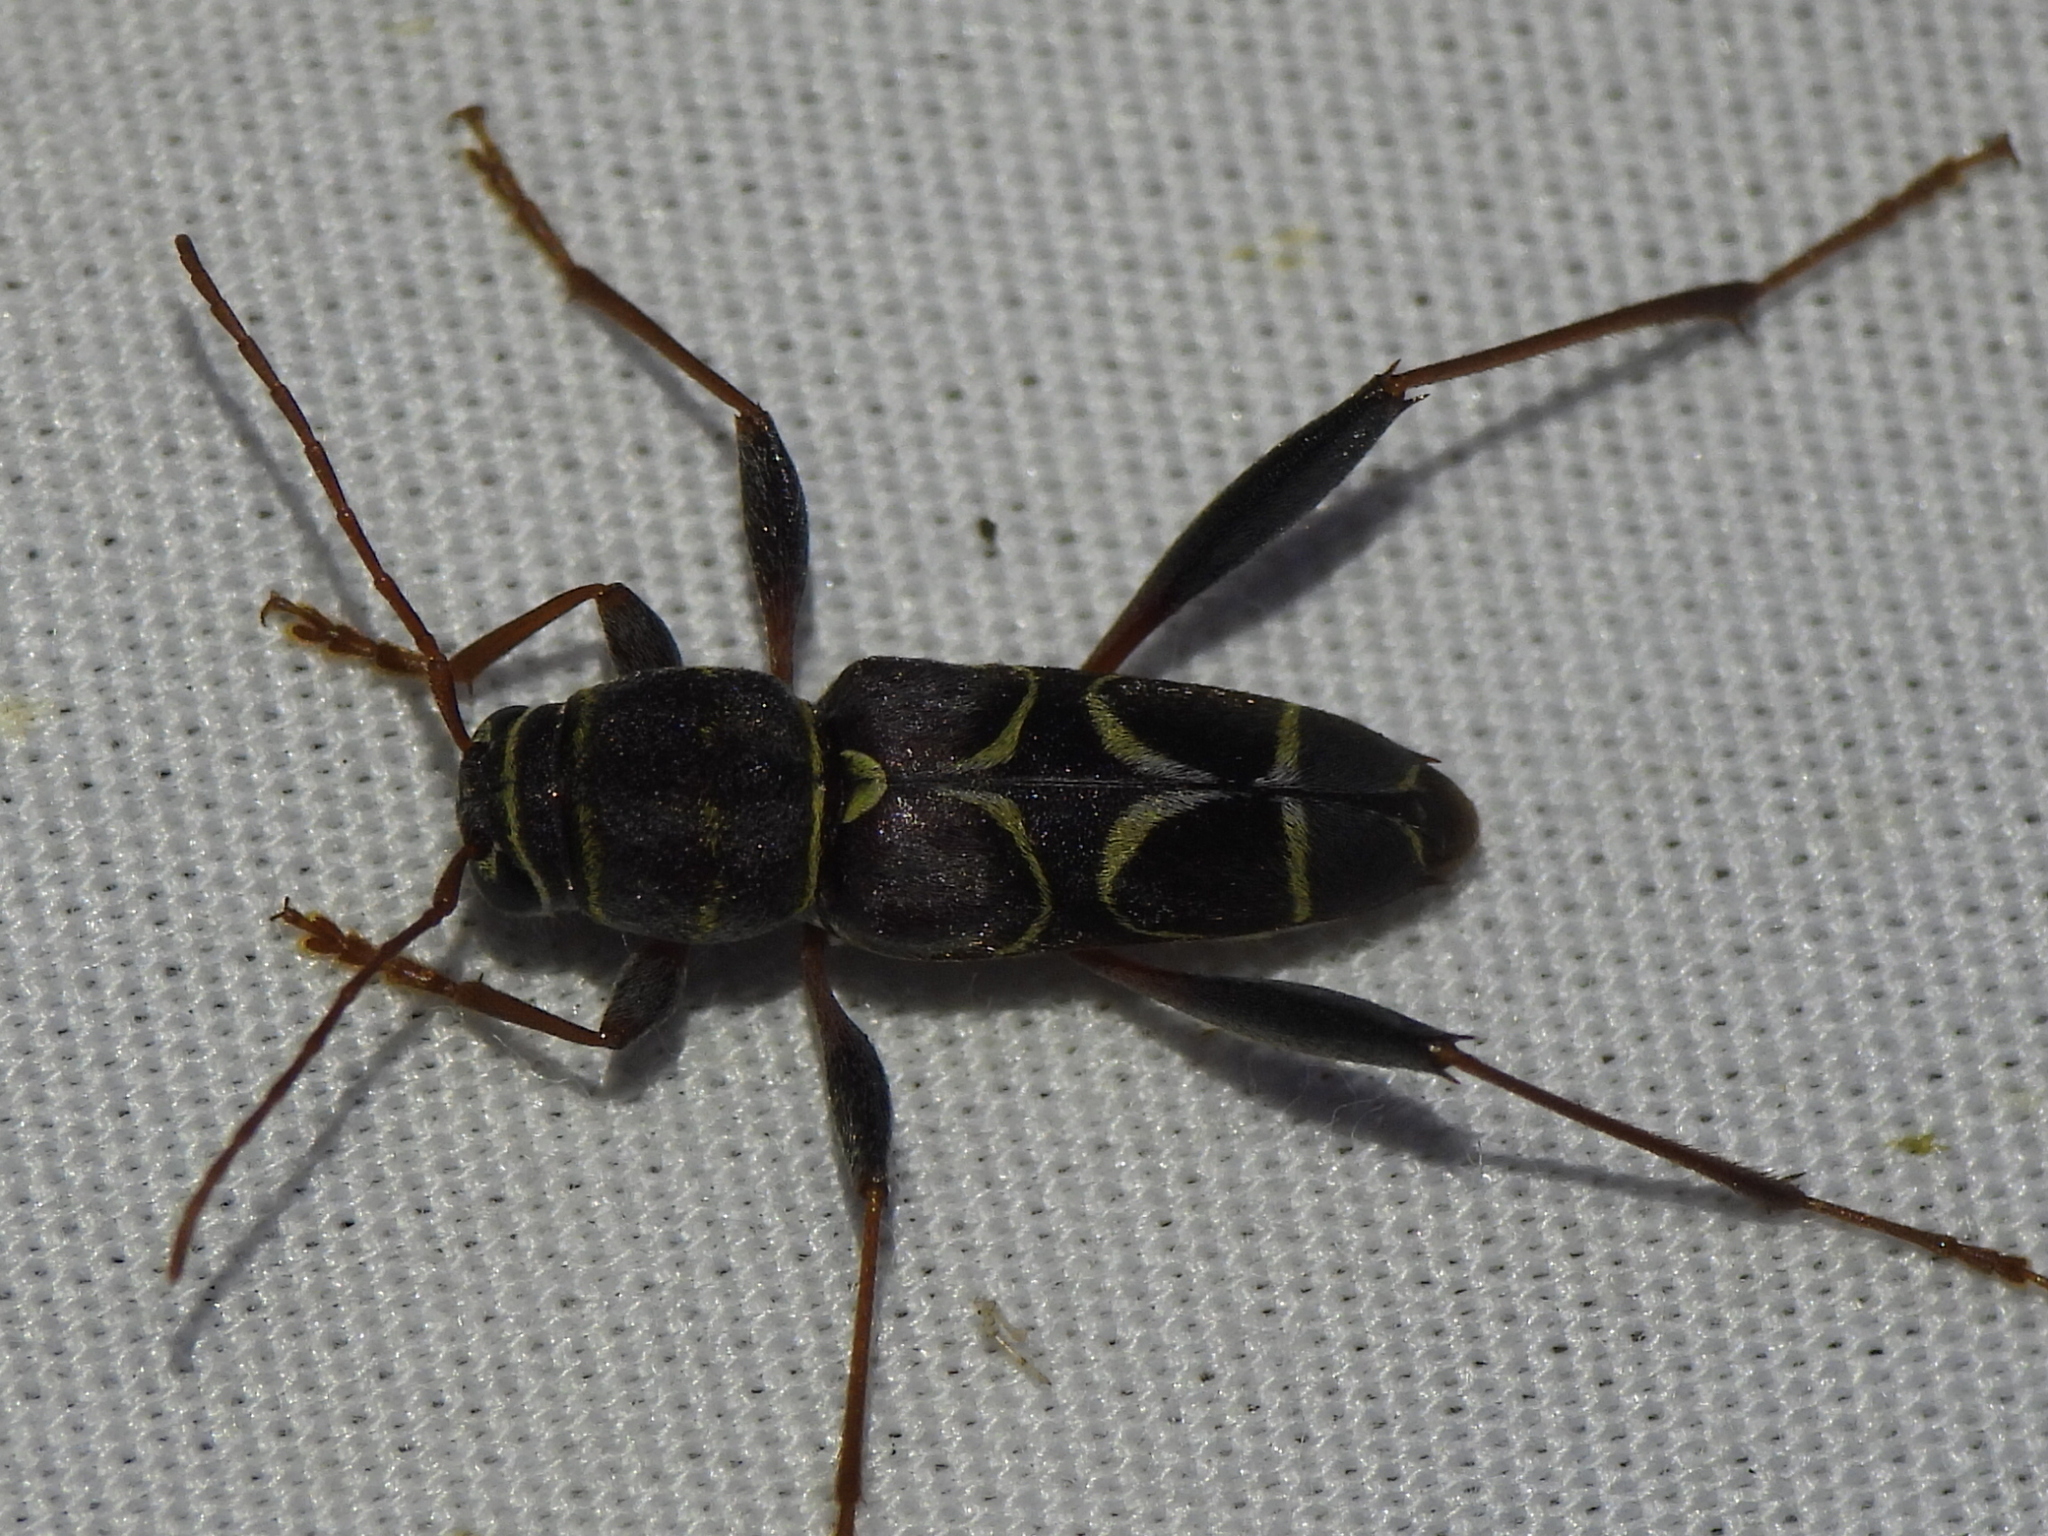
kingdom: Animalia
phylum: Arthropoda
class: Insecta
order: Coleoptera
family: Cerambycidae
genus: Neoclytus
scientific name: Neoclytus scutellaris
